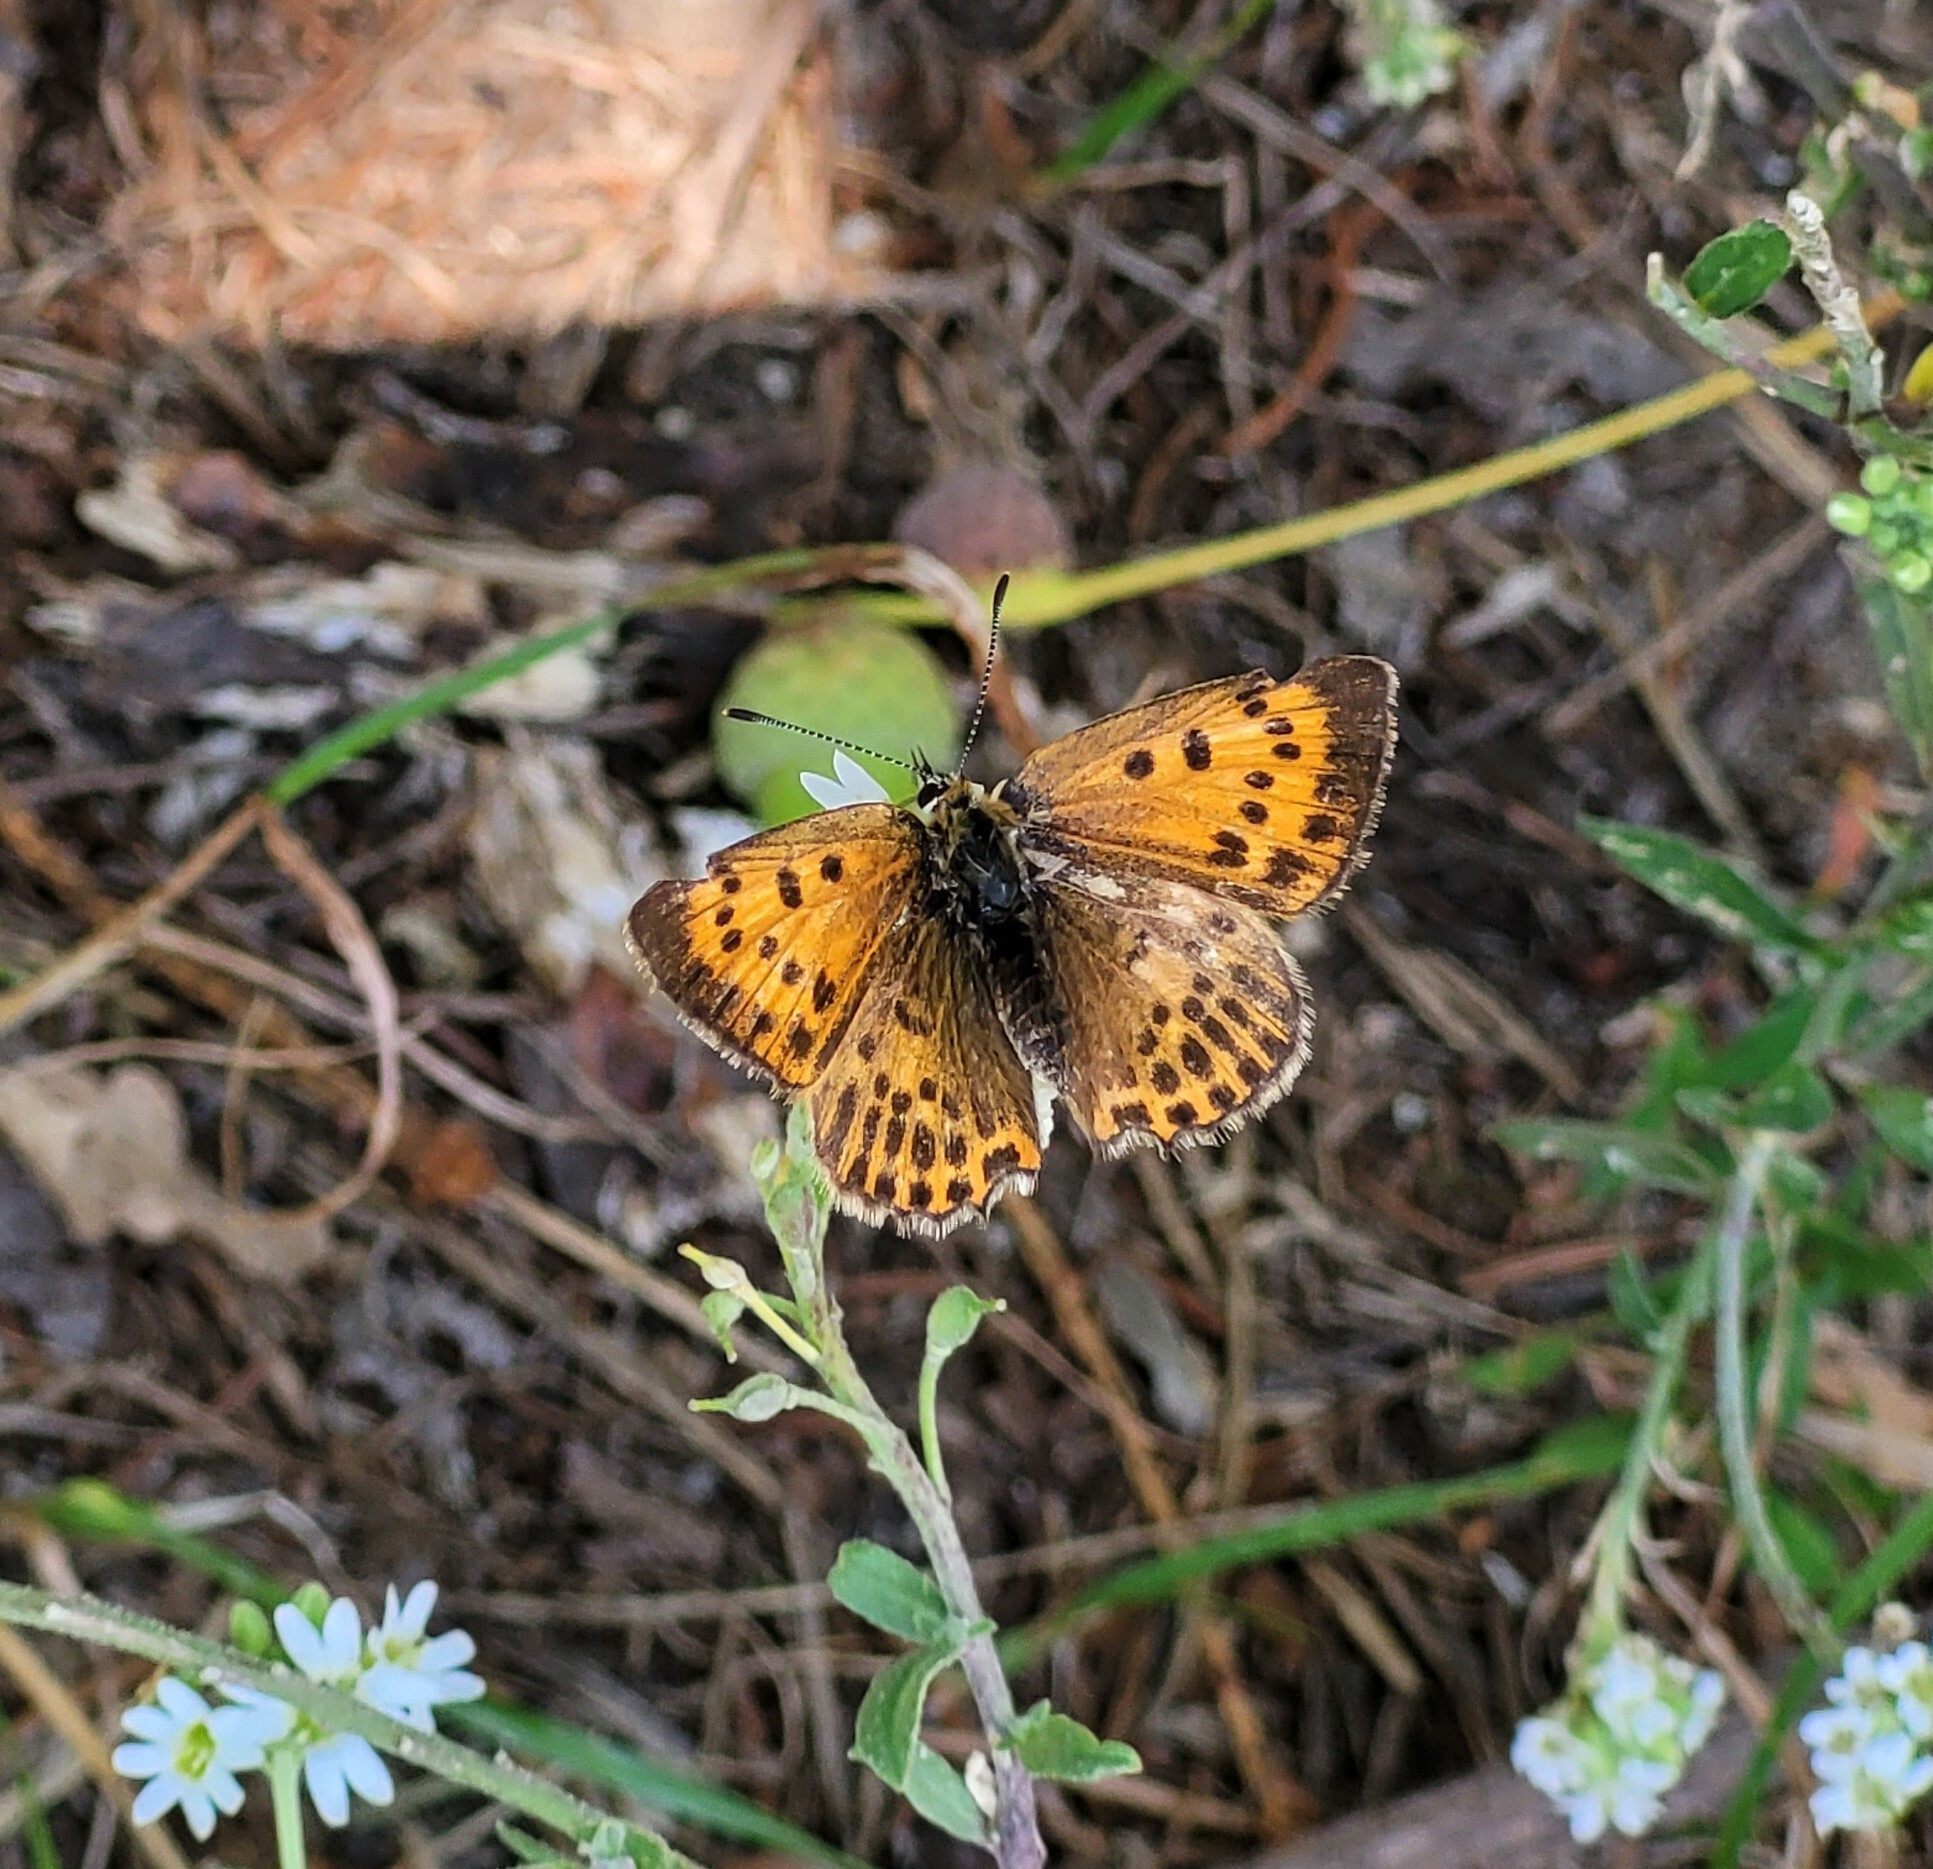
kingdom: Animalia
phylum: Arthropoda
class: Insecta
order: Lepidoptera
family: Lycaenidae
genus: Lycaena
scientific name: Lycaena virgaureae
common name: Scarce copper
